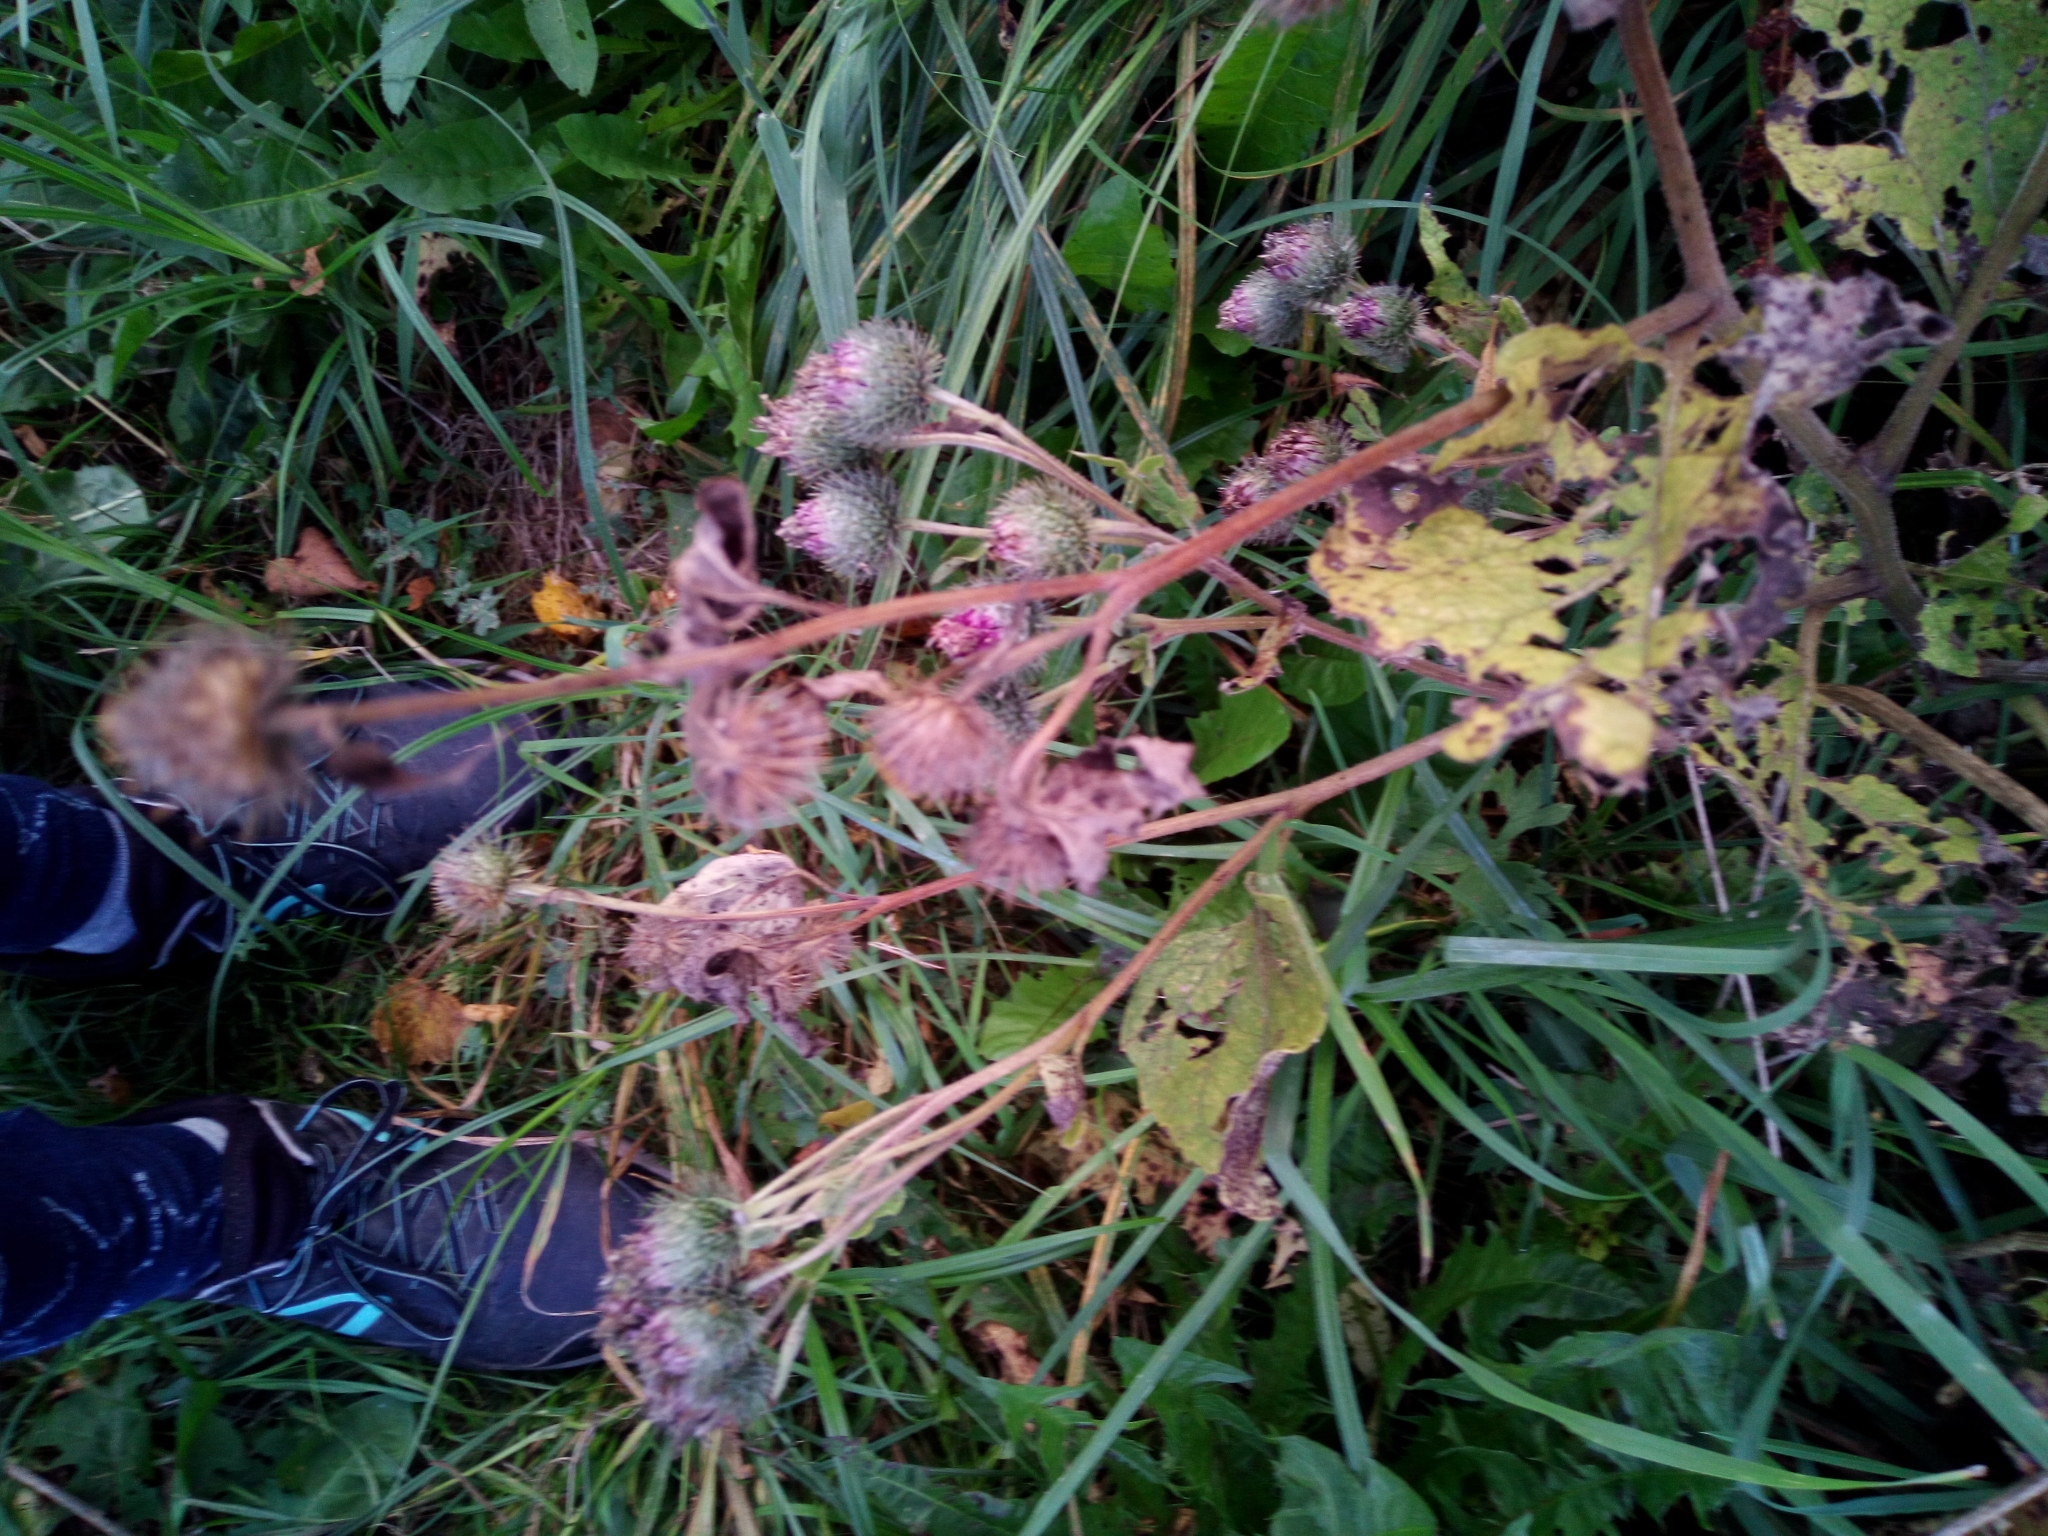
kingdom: Plantae
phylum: Tracheophyta
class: Magnoliopsida
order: Asterales
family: Asteraceae
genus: Arctium
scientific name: Arctium tomentosum
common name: Woolly burdock
